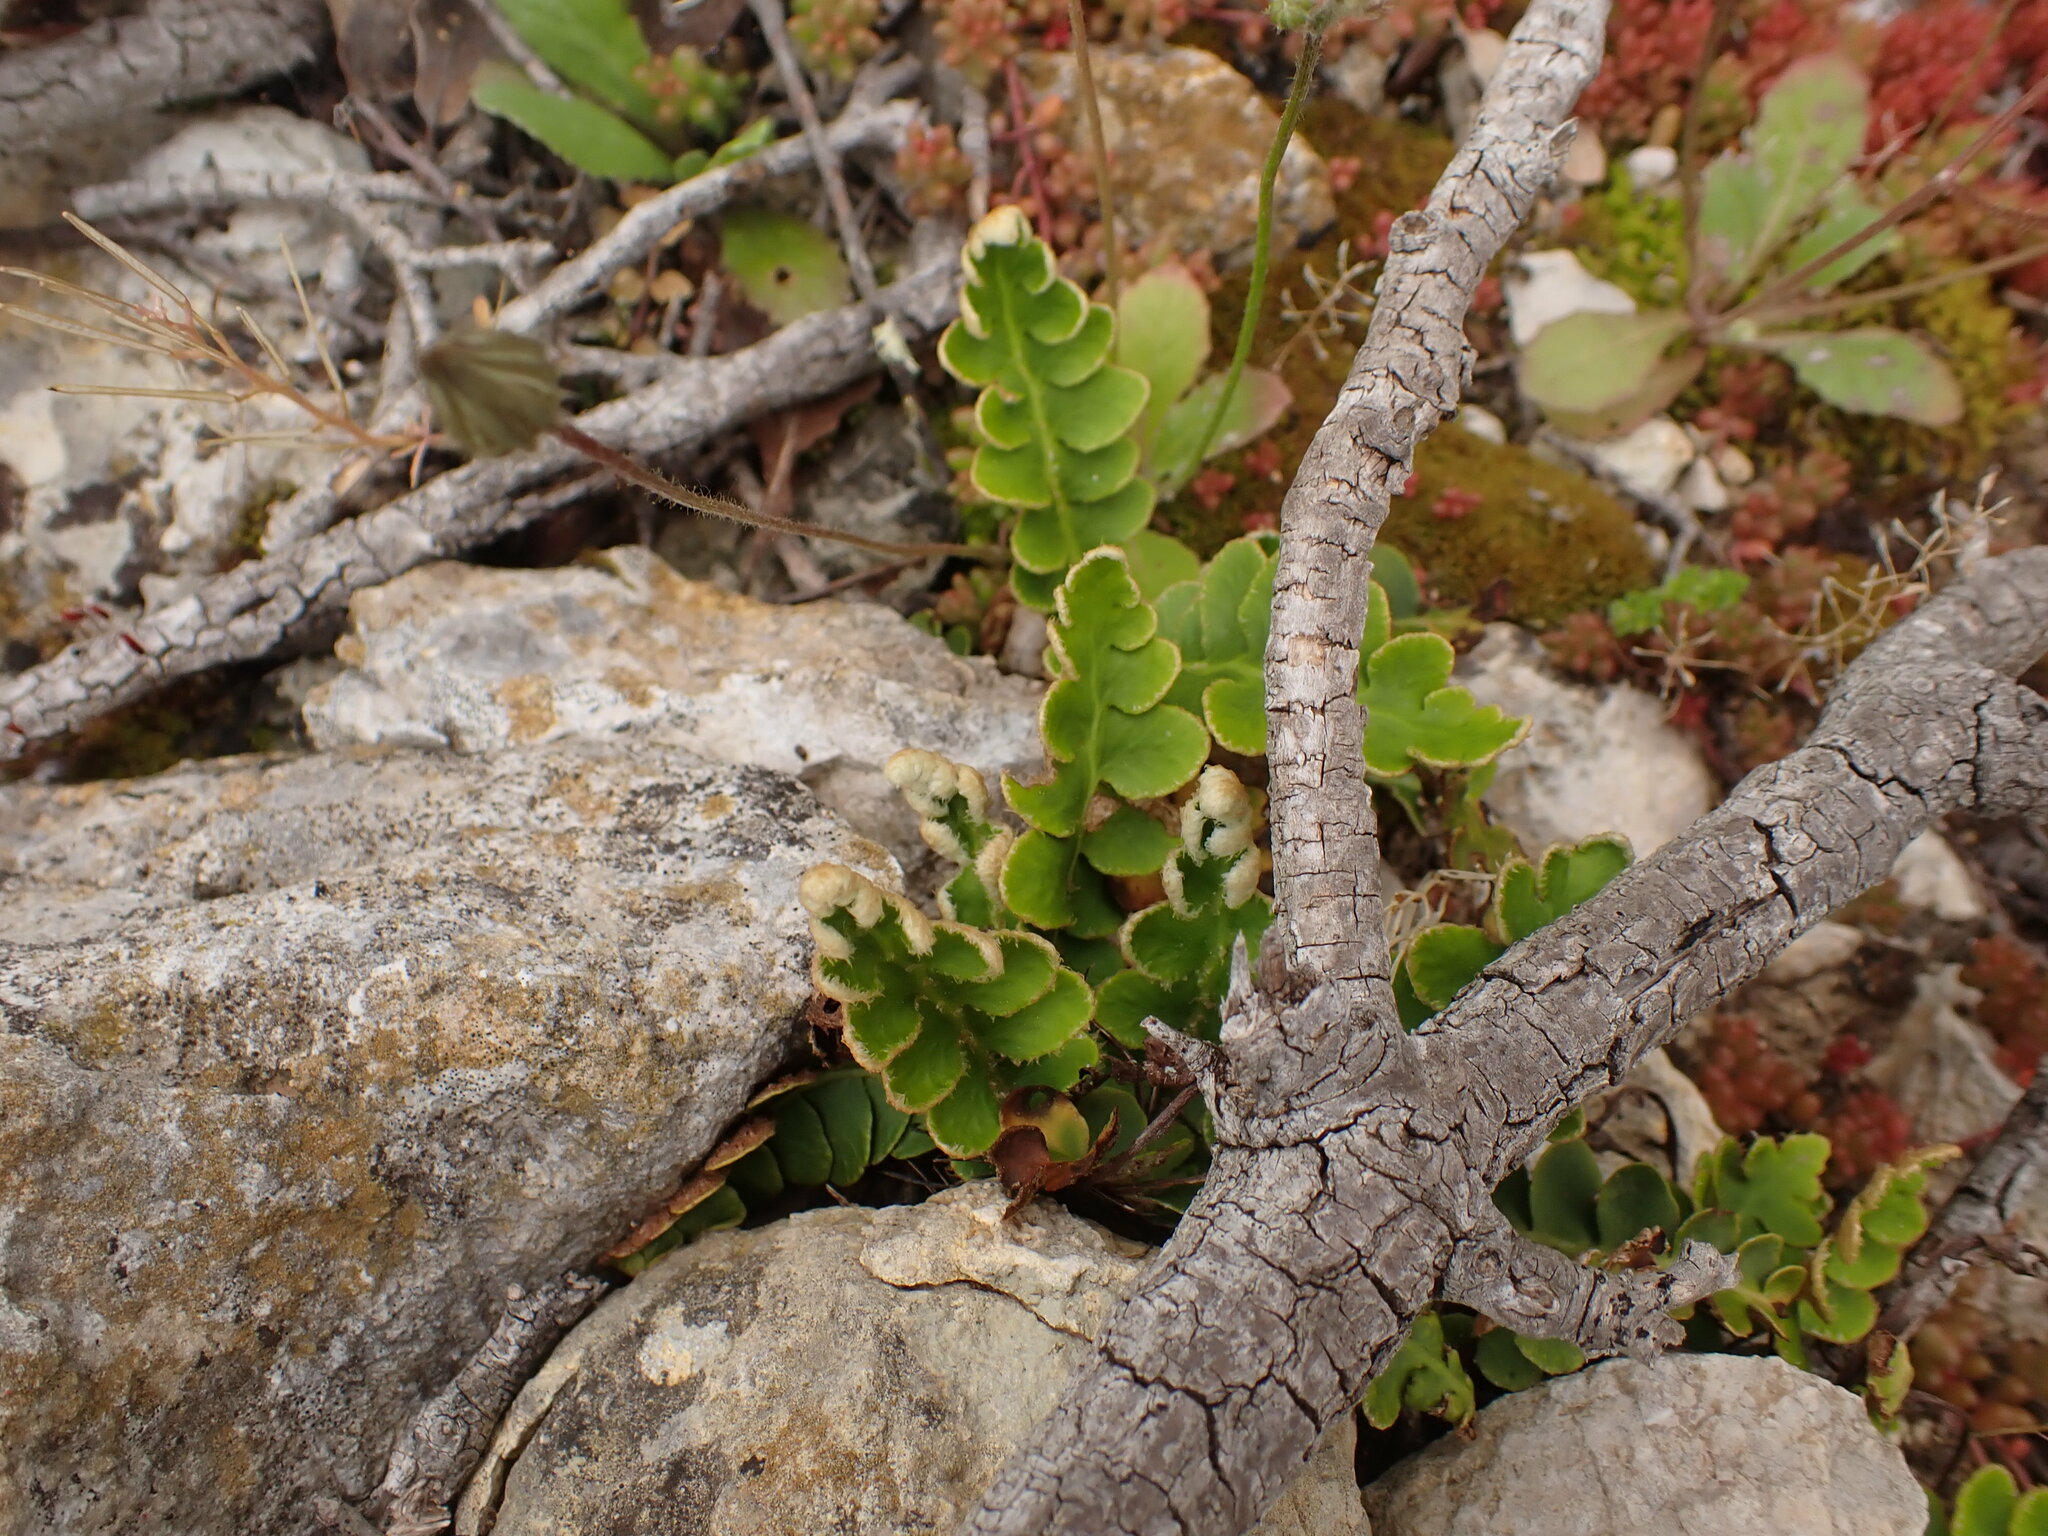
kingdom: Plantae
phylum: Tracheophyta
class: Polypodiopsida
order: Polypodiales
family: Aspleniaceae
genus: Asplenium
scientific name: Asplenium ceterach
